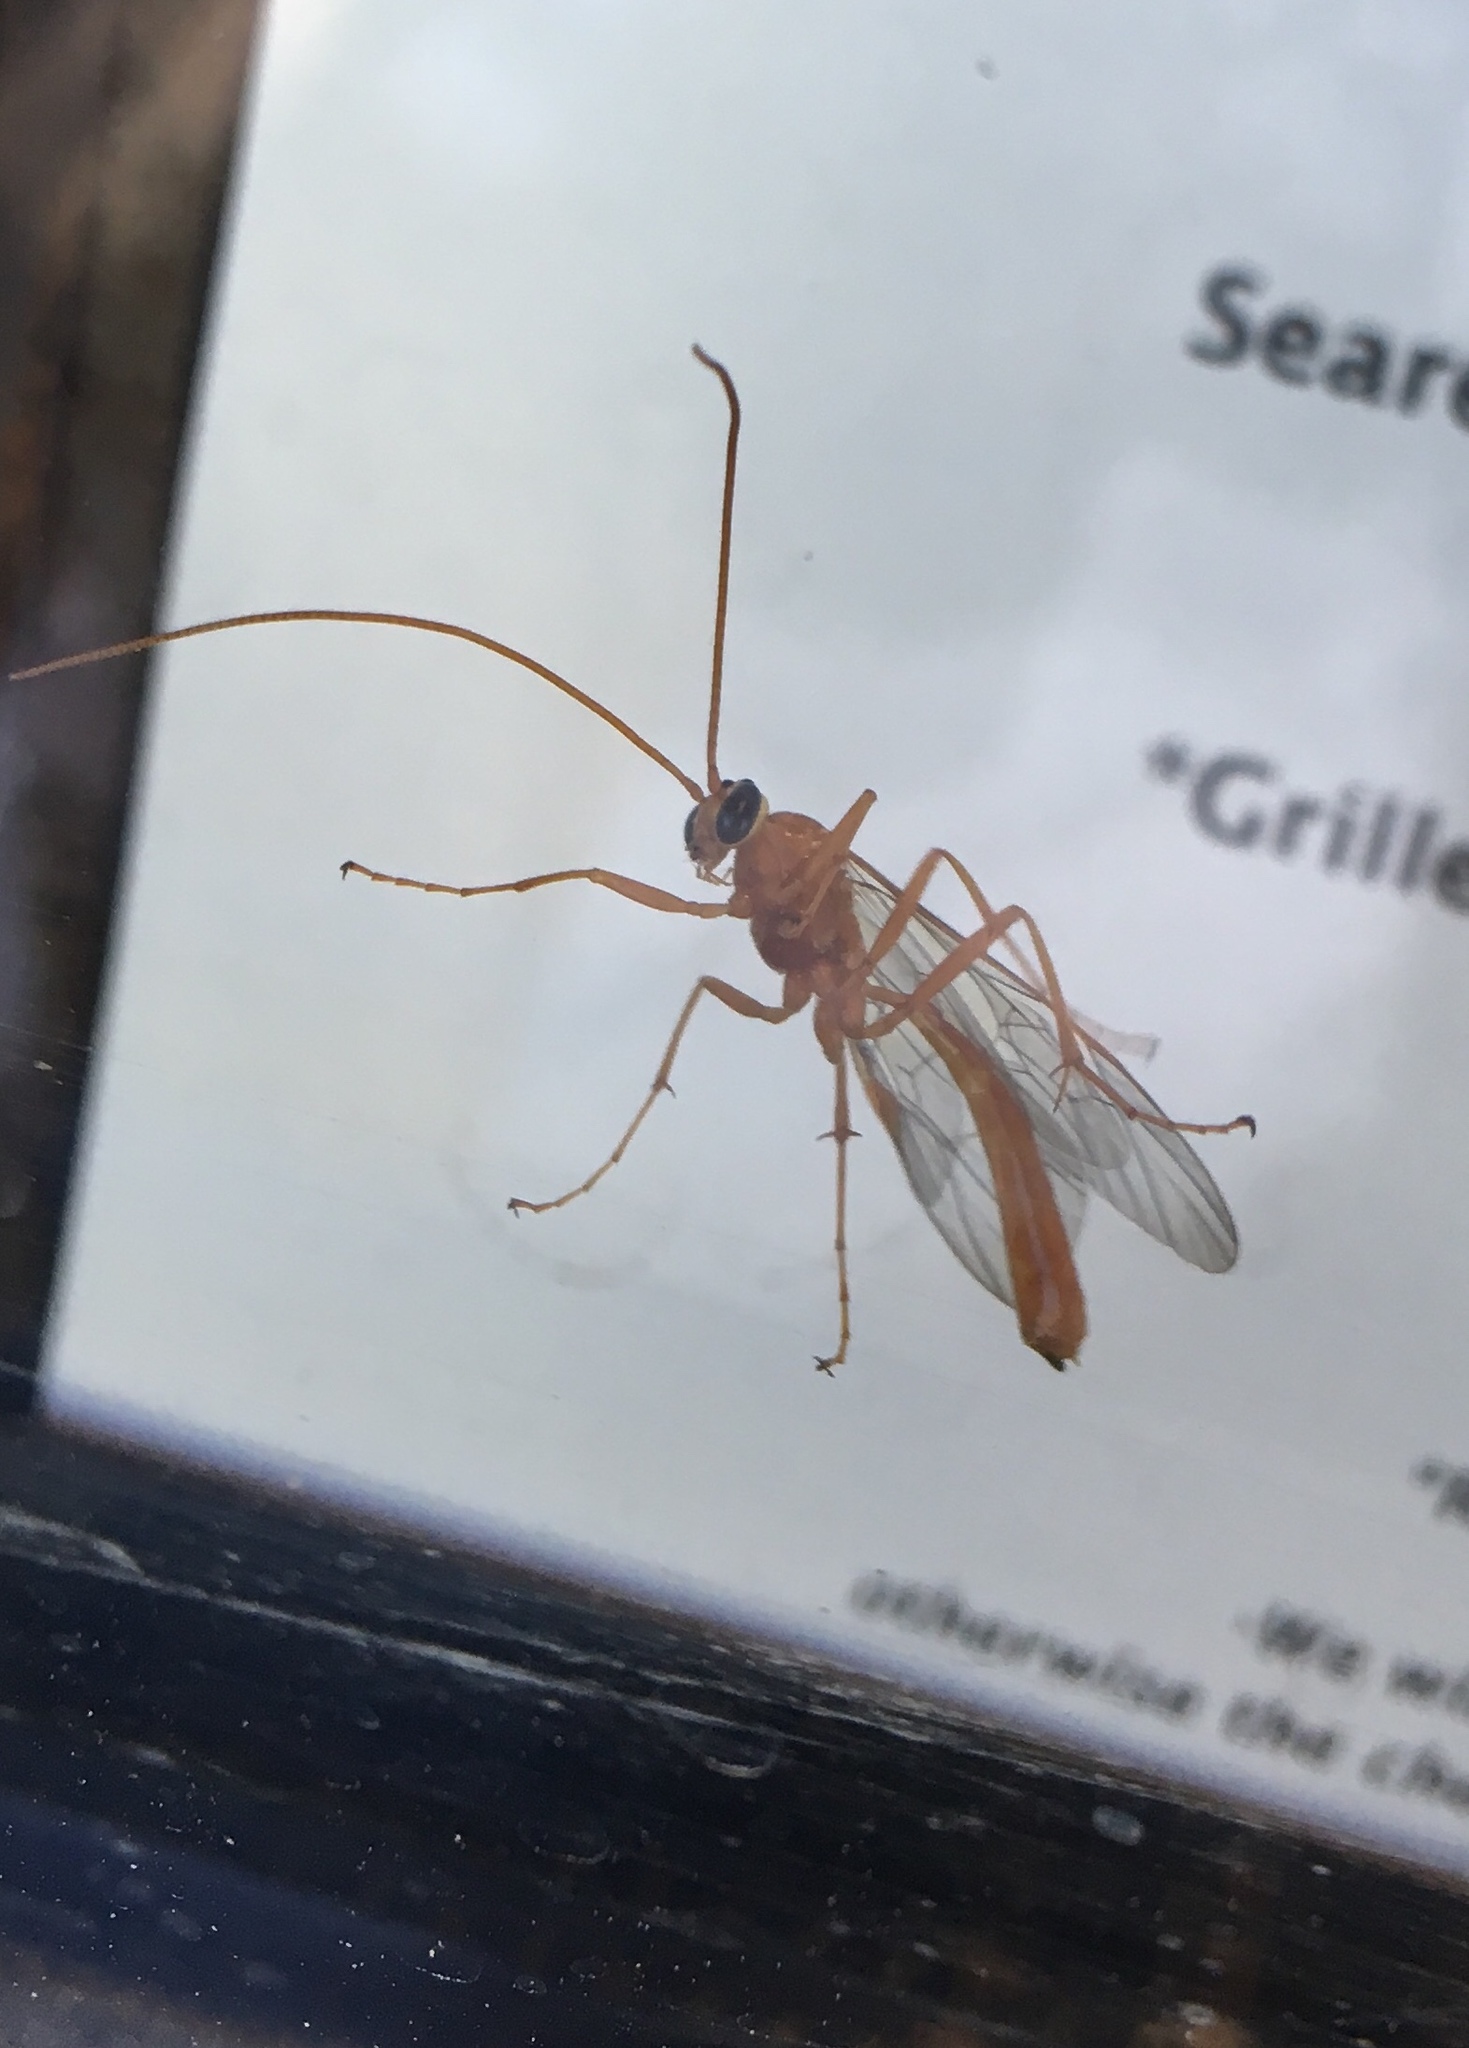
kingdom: Animalia
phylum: Arthropoda
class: Insecta
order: Hymenoptera
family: Ichneumonidae
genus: Ophion
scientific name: Ophion
